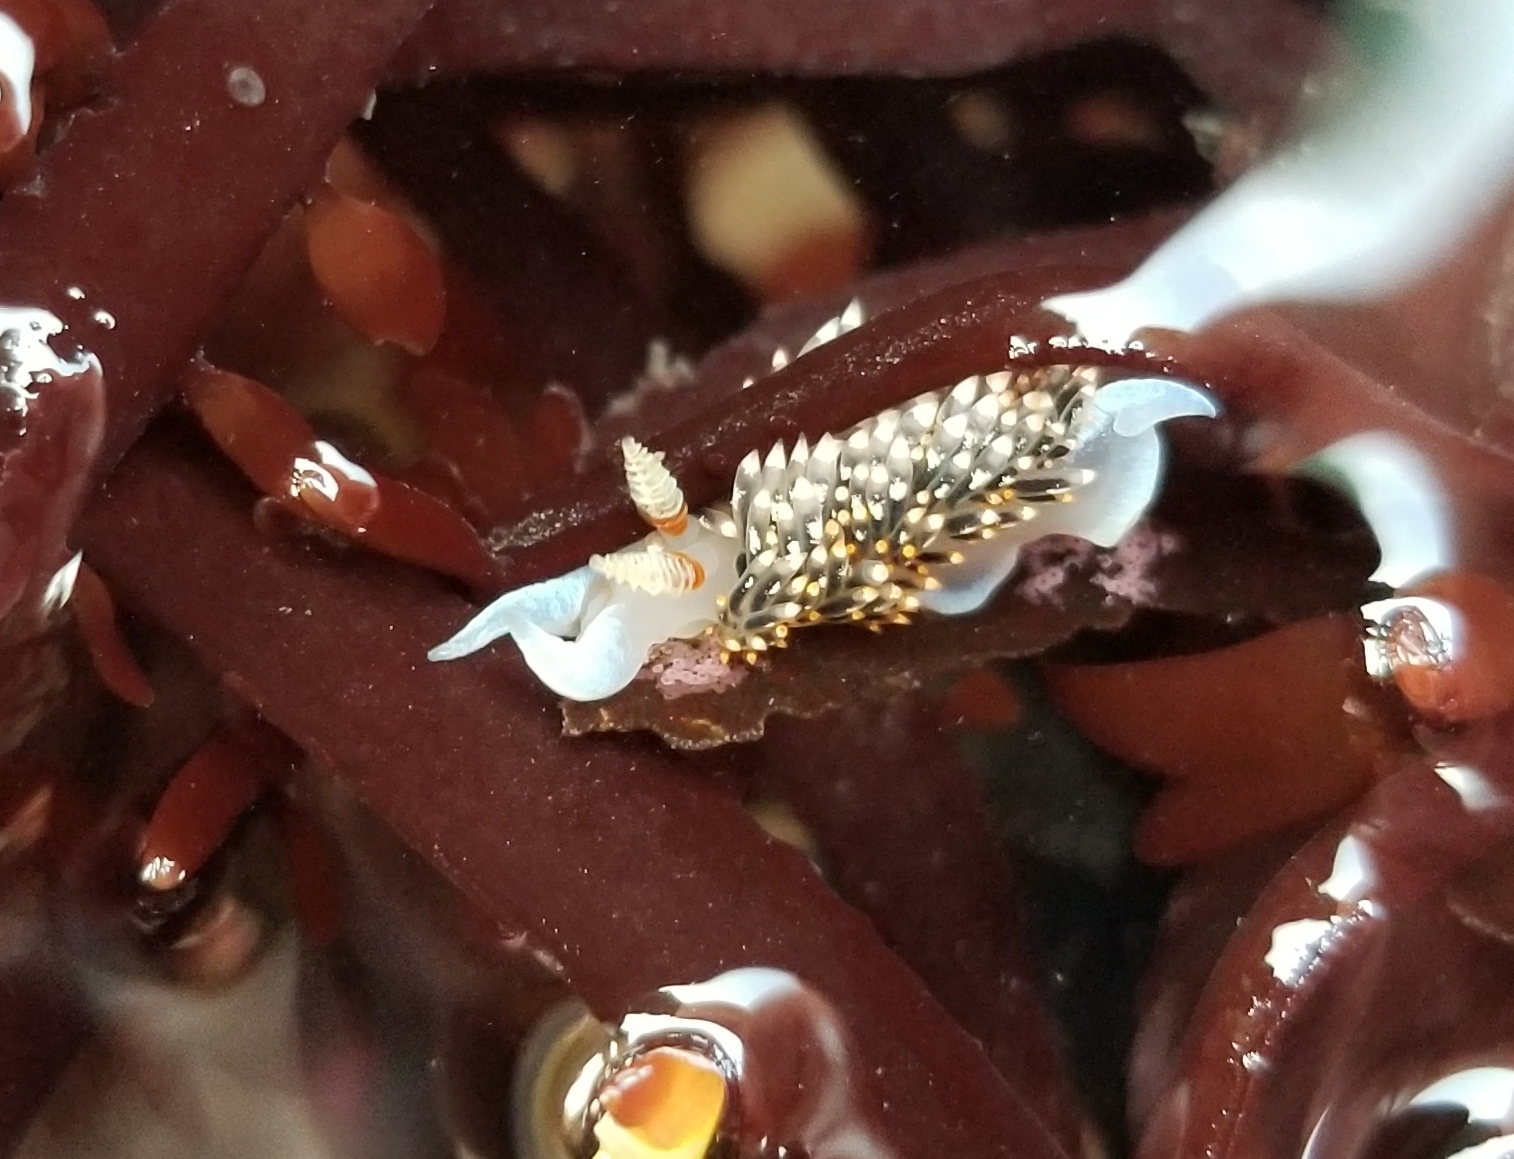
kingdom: Animalia
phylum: Mollusca
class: Gastropoda
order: Nudibranchia
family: Facelinidae
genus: Phidiana
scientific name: Phidiana hiltoni
